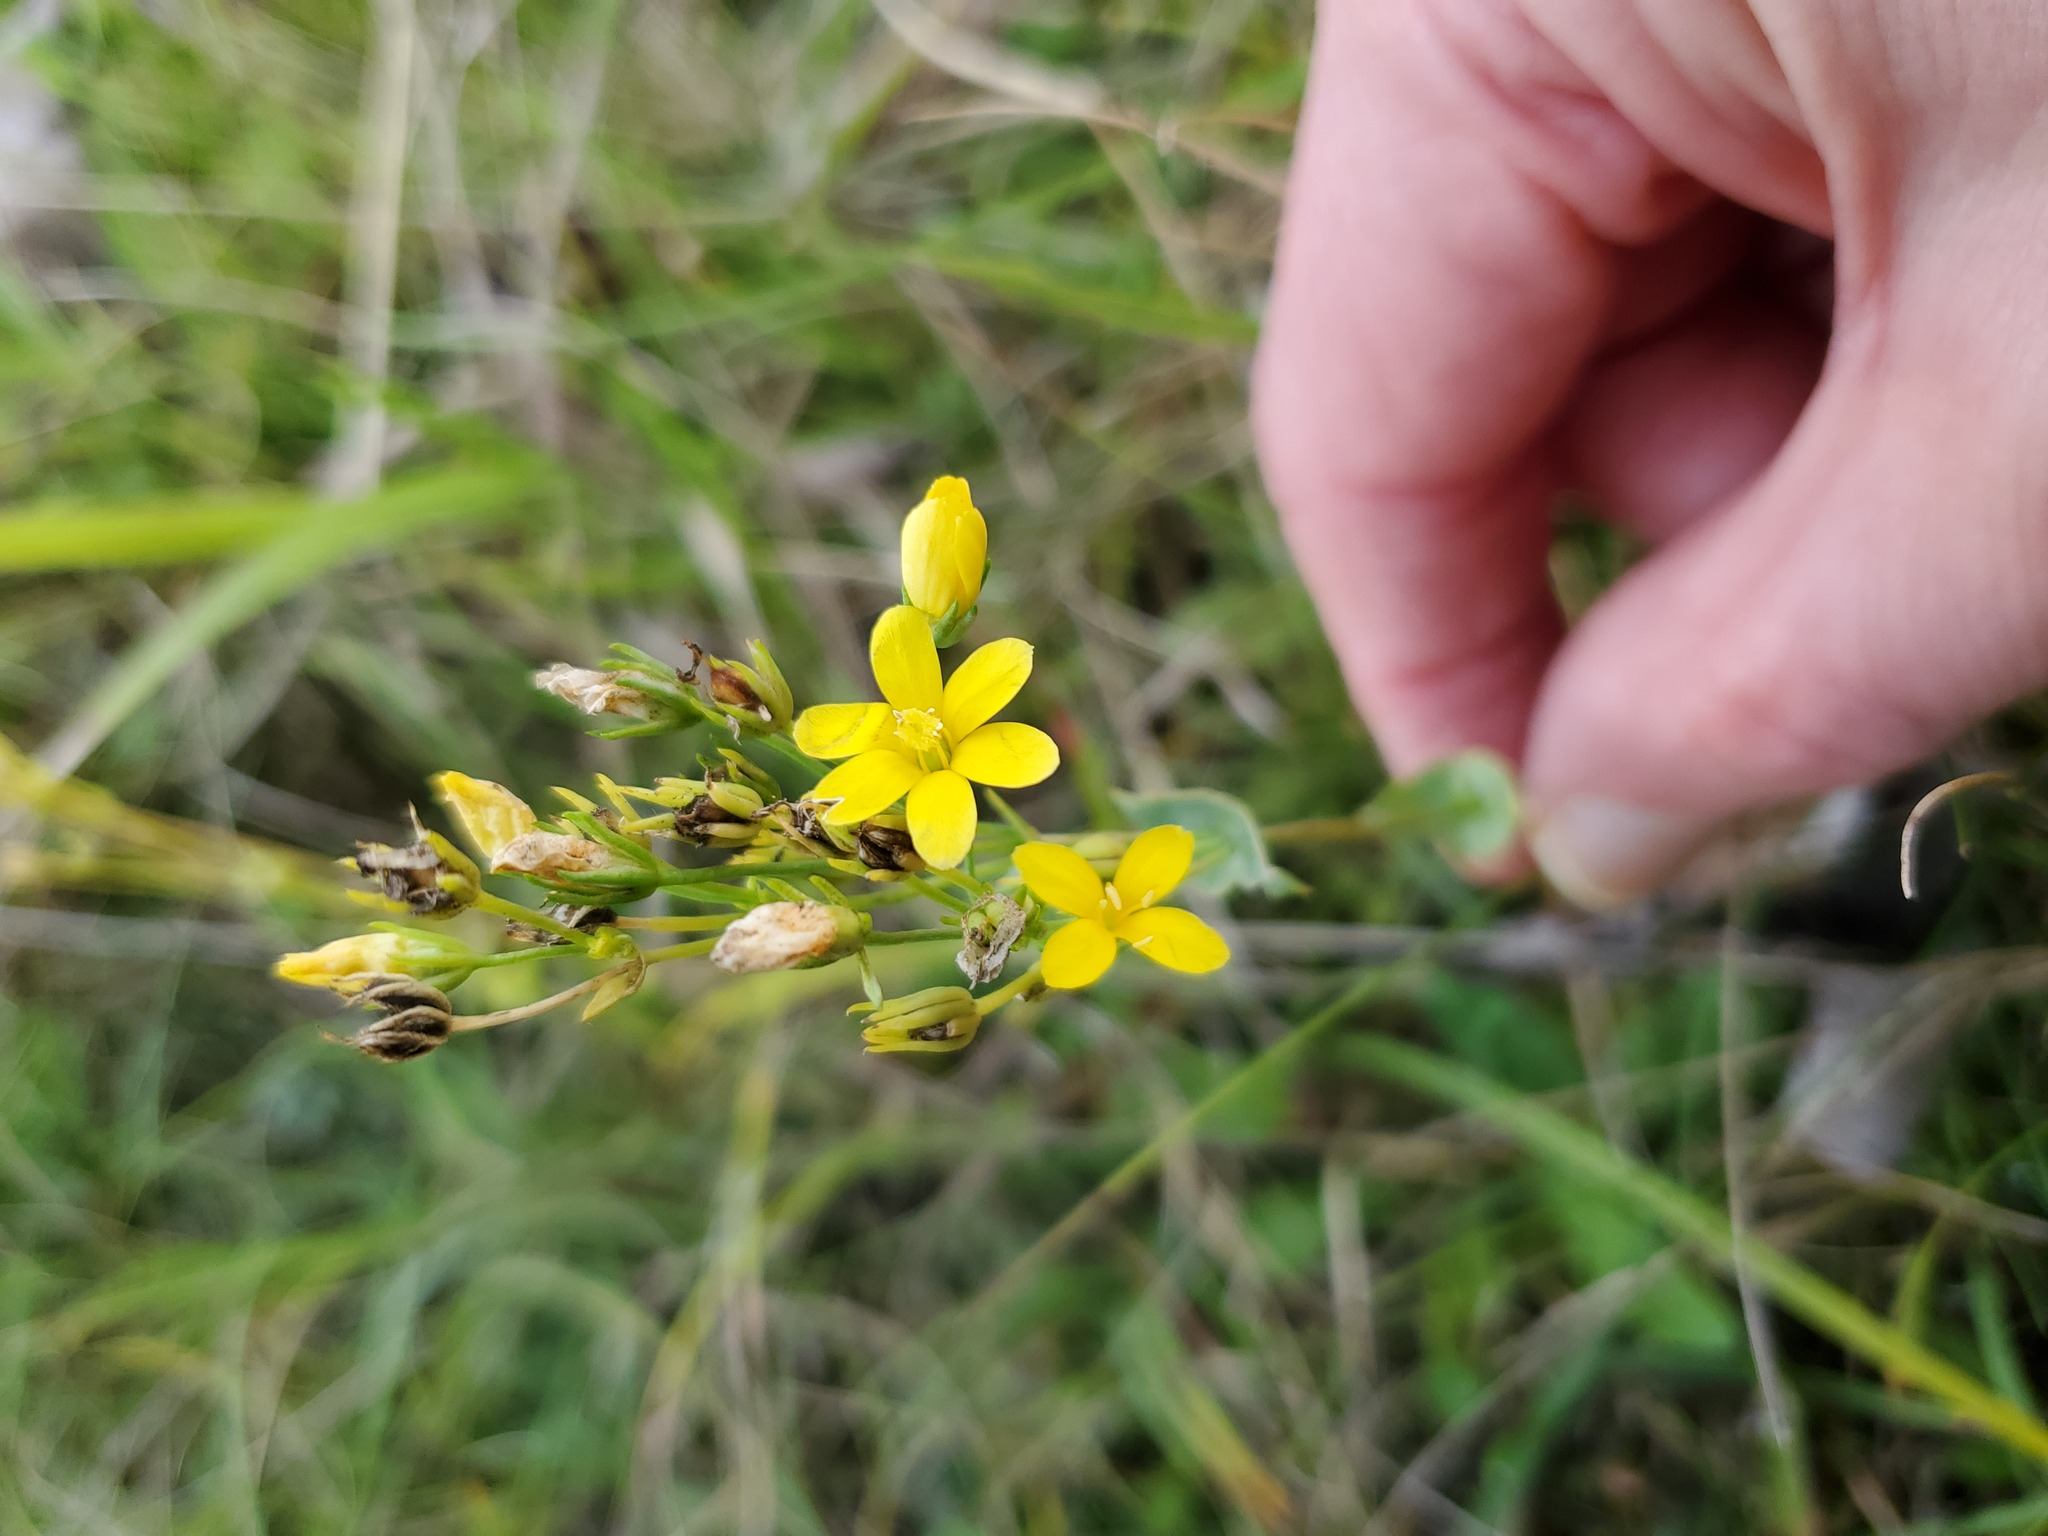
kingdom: Plantae
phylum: Tracheophyta
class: Magnoliopsida
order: Gentianales
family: Gentianaceae
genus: Blackstonia
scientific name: Blackstonia perfoliata
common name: Yellow-wort
